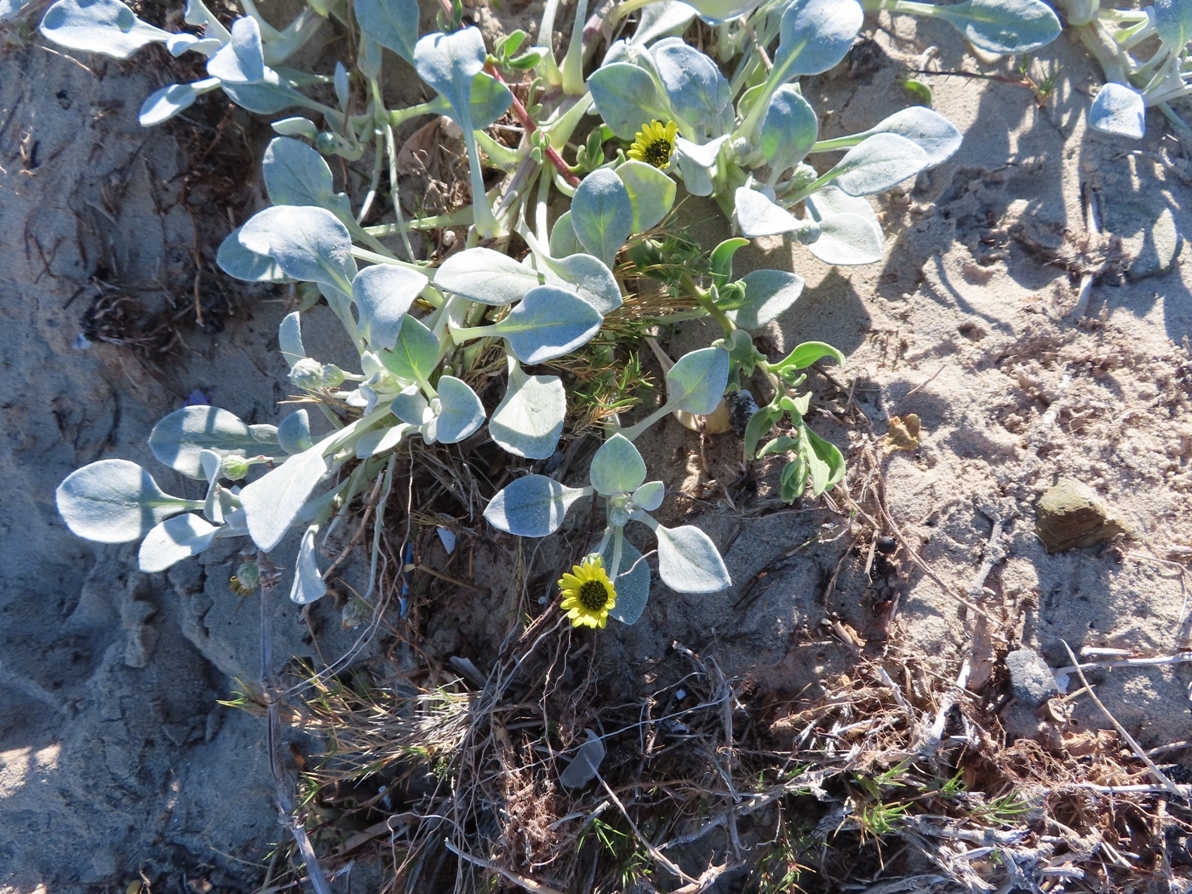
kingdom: Plantae
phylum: Tracheophyta
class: Magnoliopsida
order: Asterales
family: Asteraceae
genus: Arctotheca
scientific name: Arctotheca populifolia
